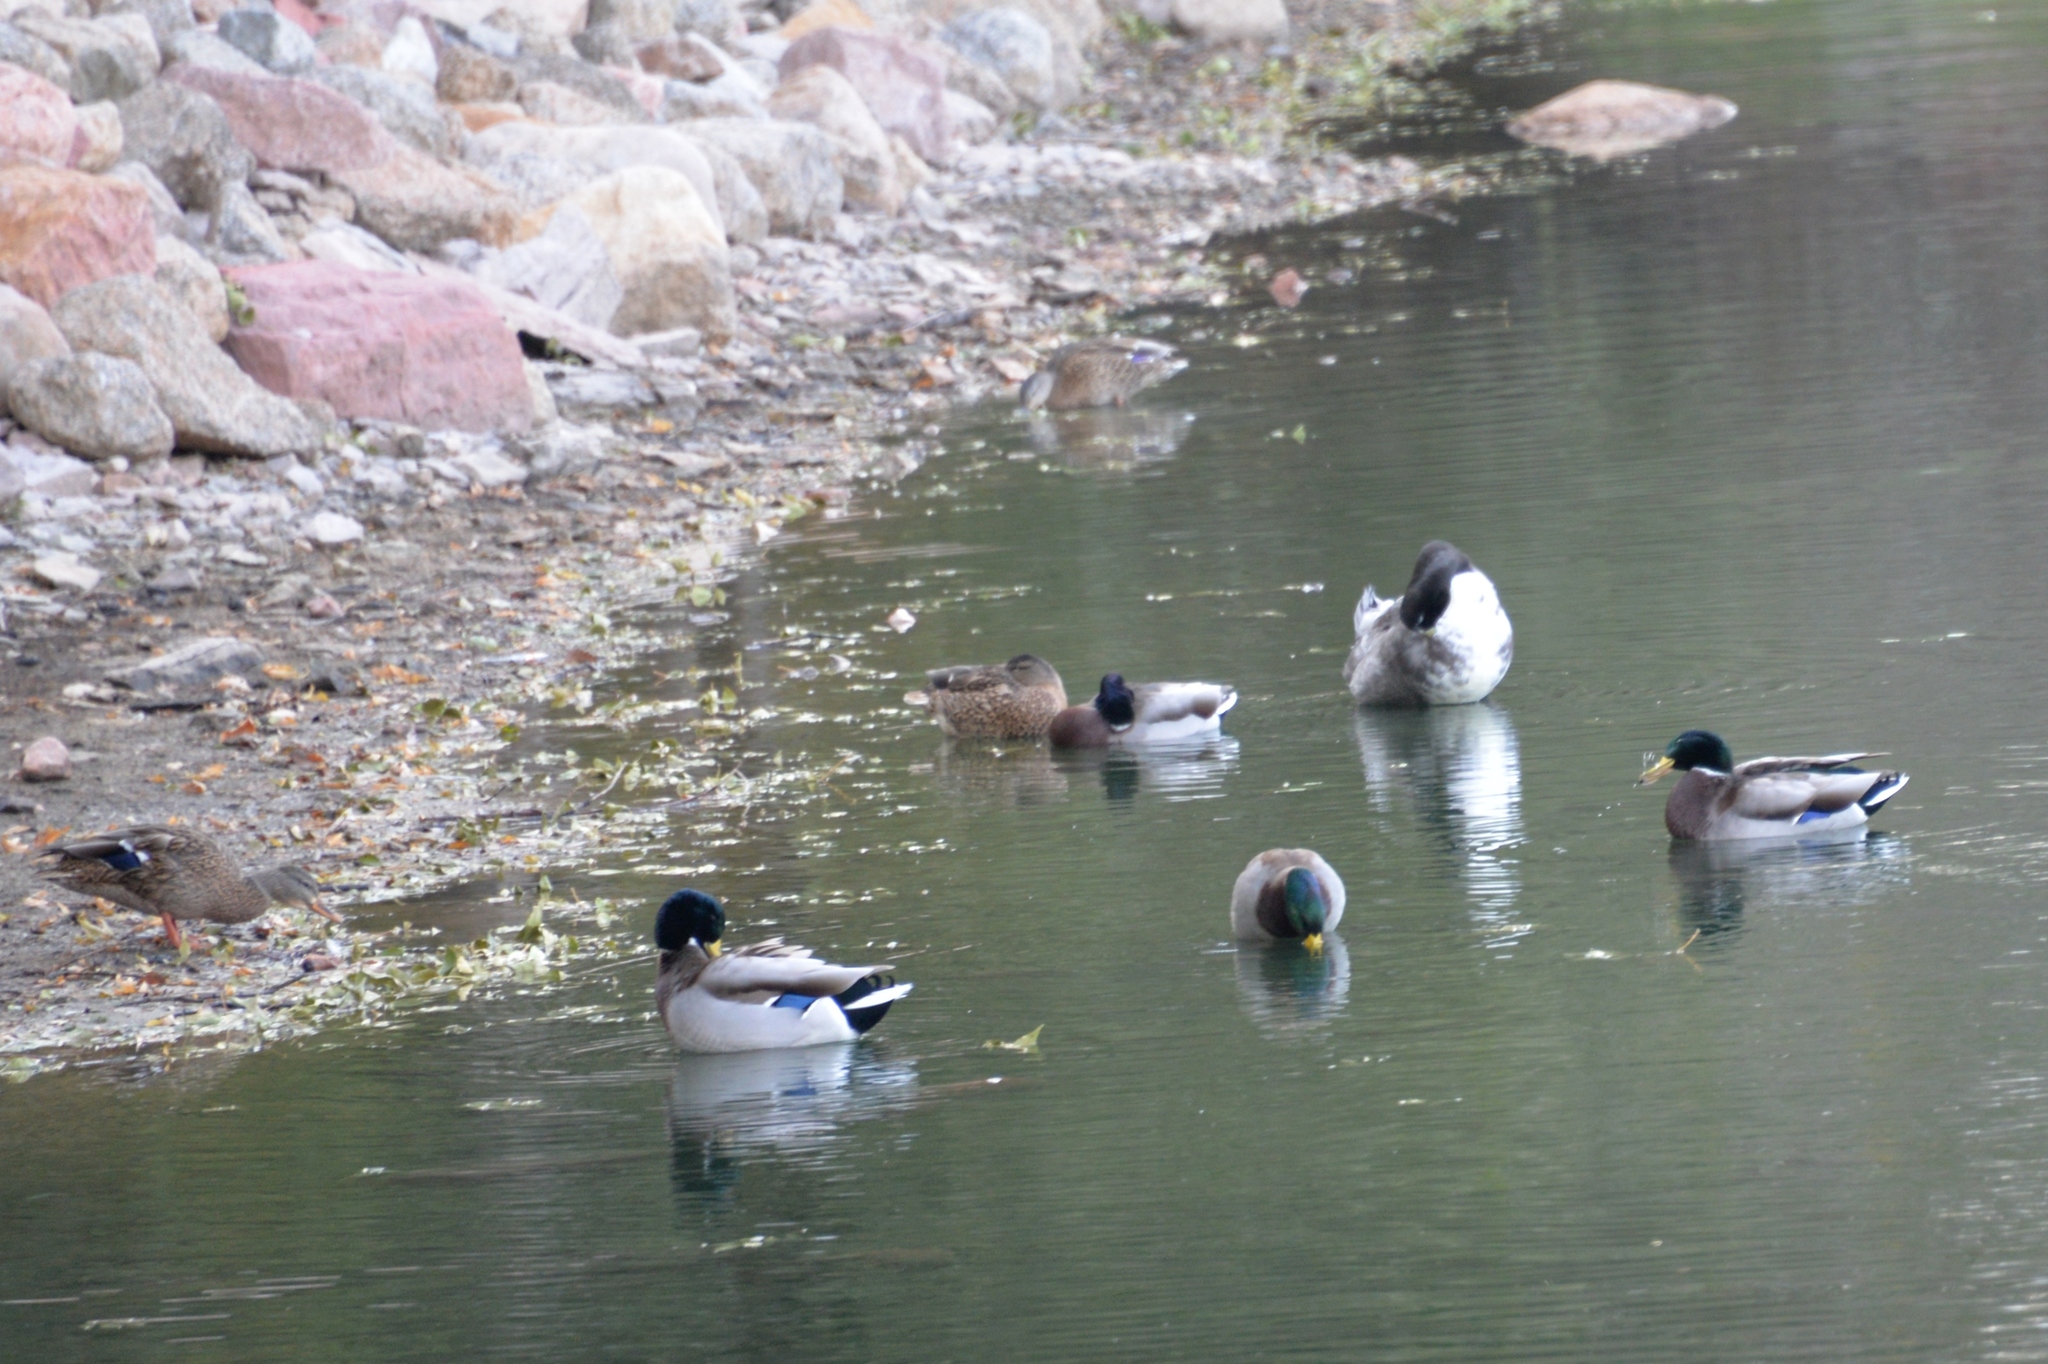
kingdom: Animalia
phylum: Chordata
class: Aves
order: Anseriformes
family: Anatidae
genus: Anas
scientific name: Anas platyrhynchos
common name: Mallard
